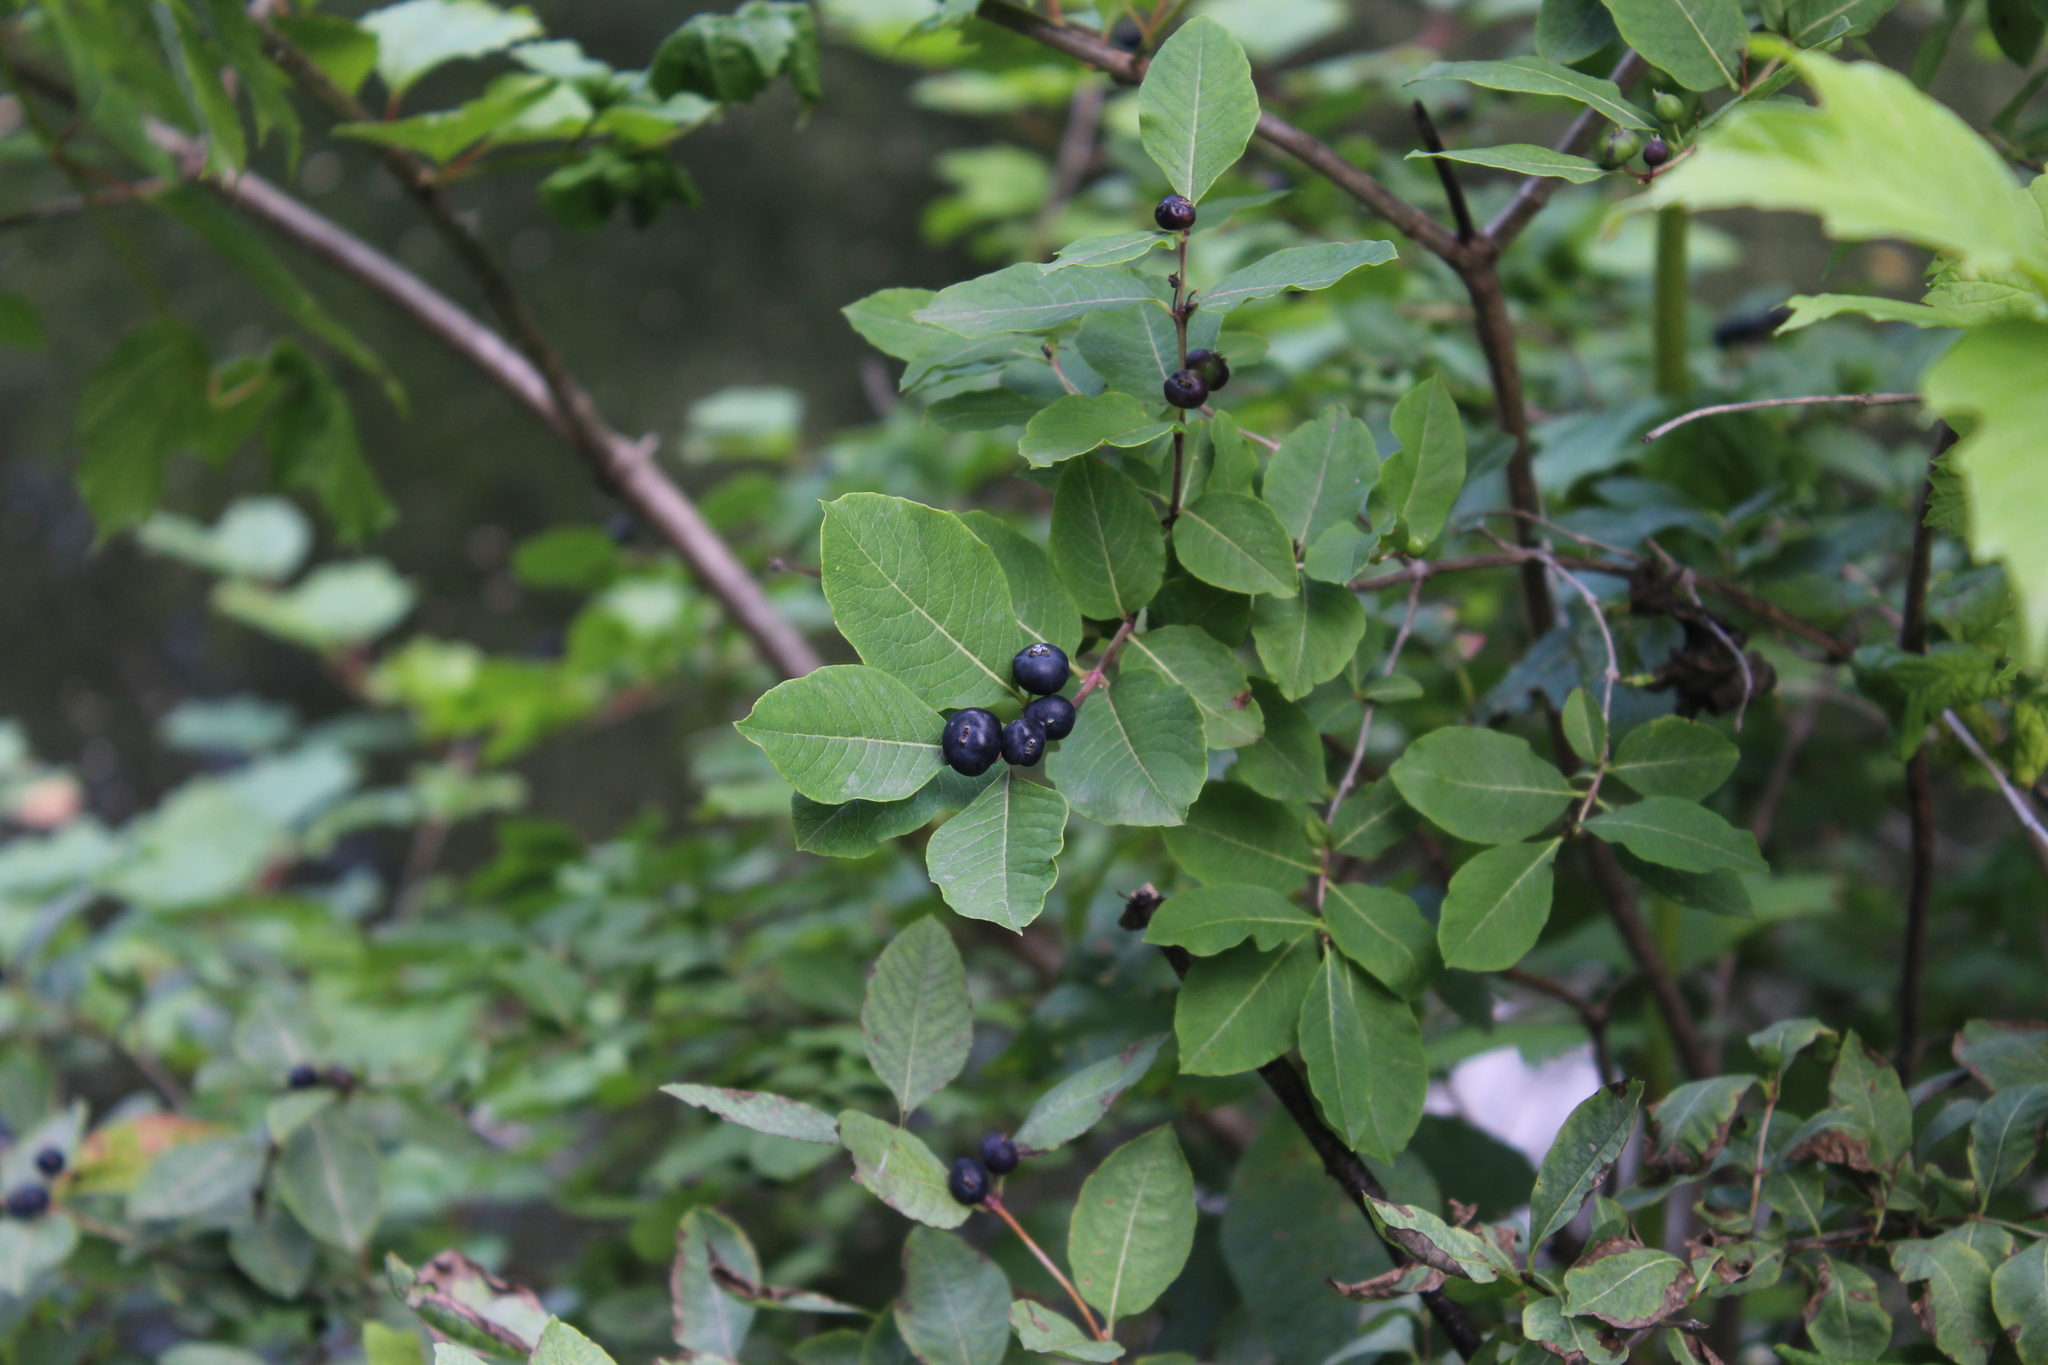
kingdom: Plantae
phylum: Tracheophyta
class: Magnoliopsida
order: Dipsacales
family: Caprifoliaceae
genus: Lonicera
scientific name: Lonicera caucasica
